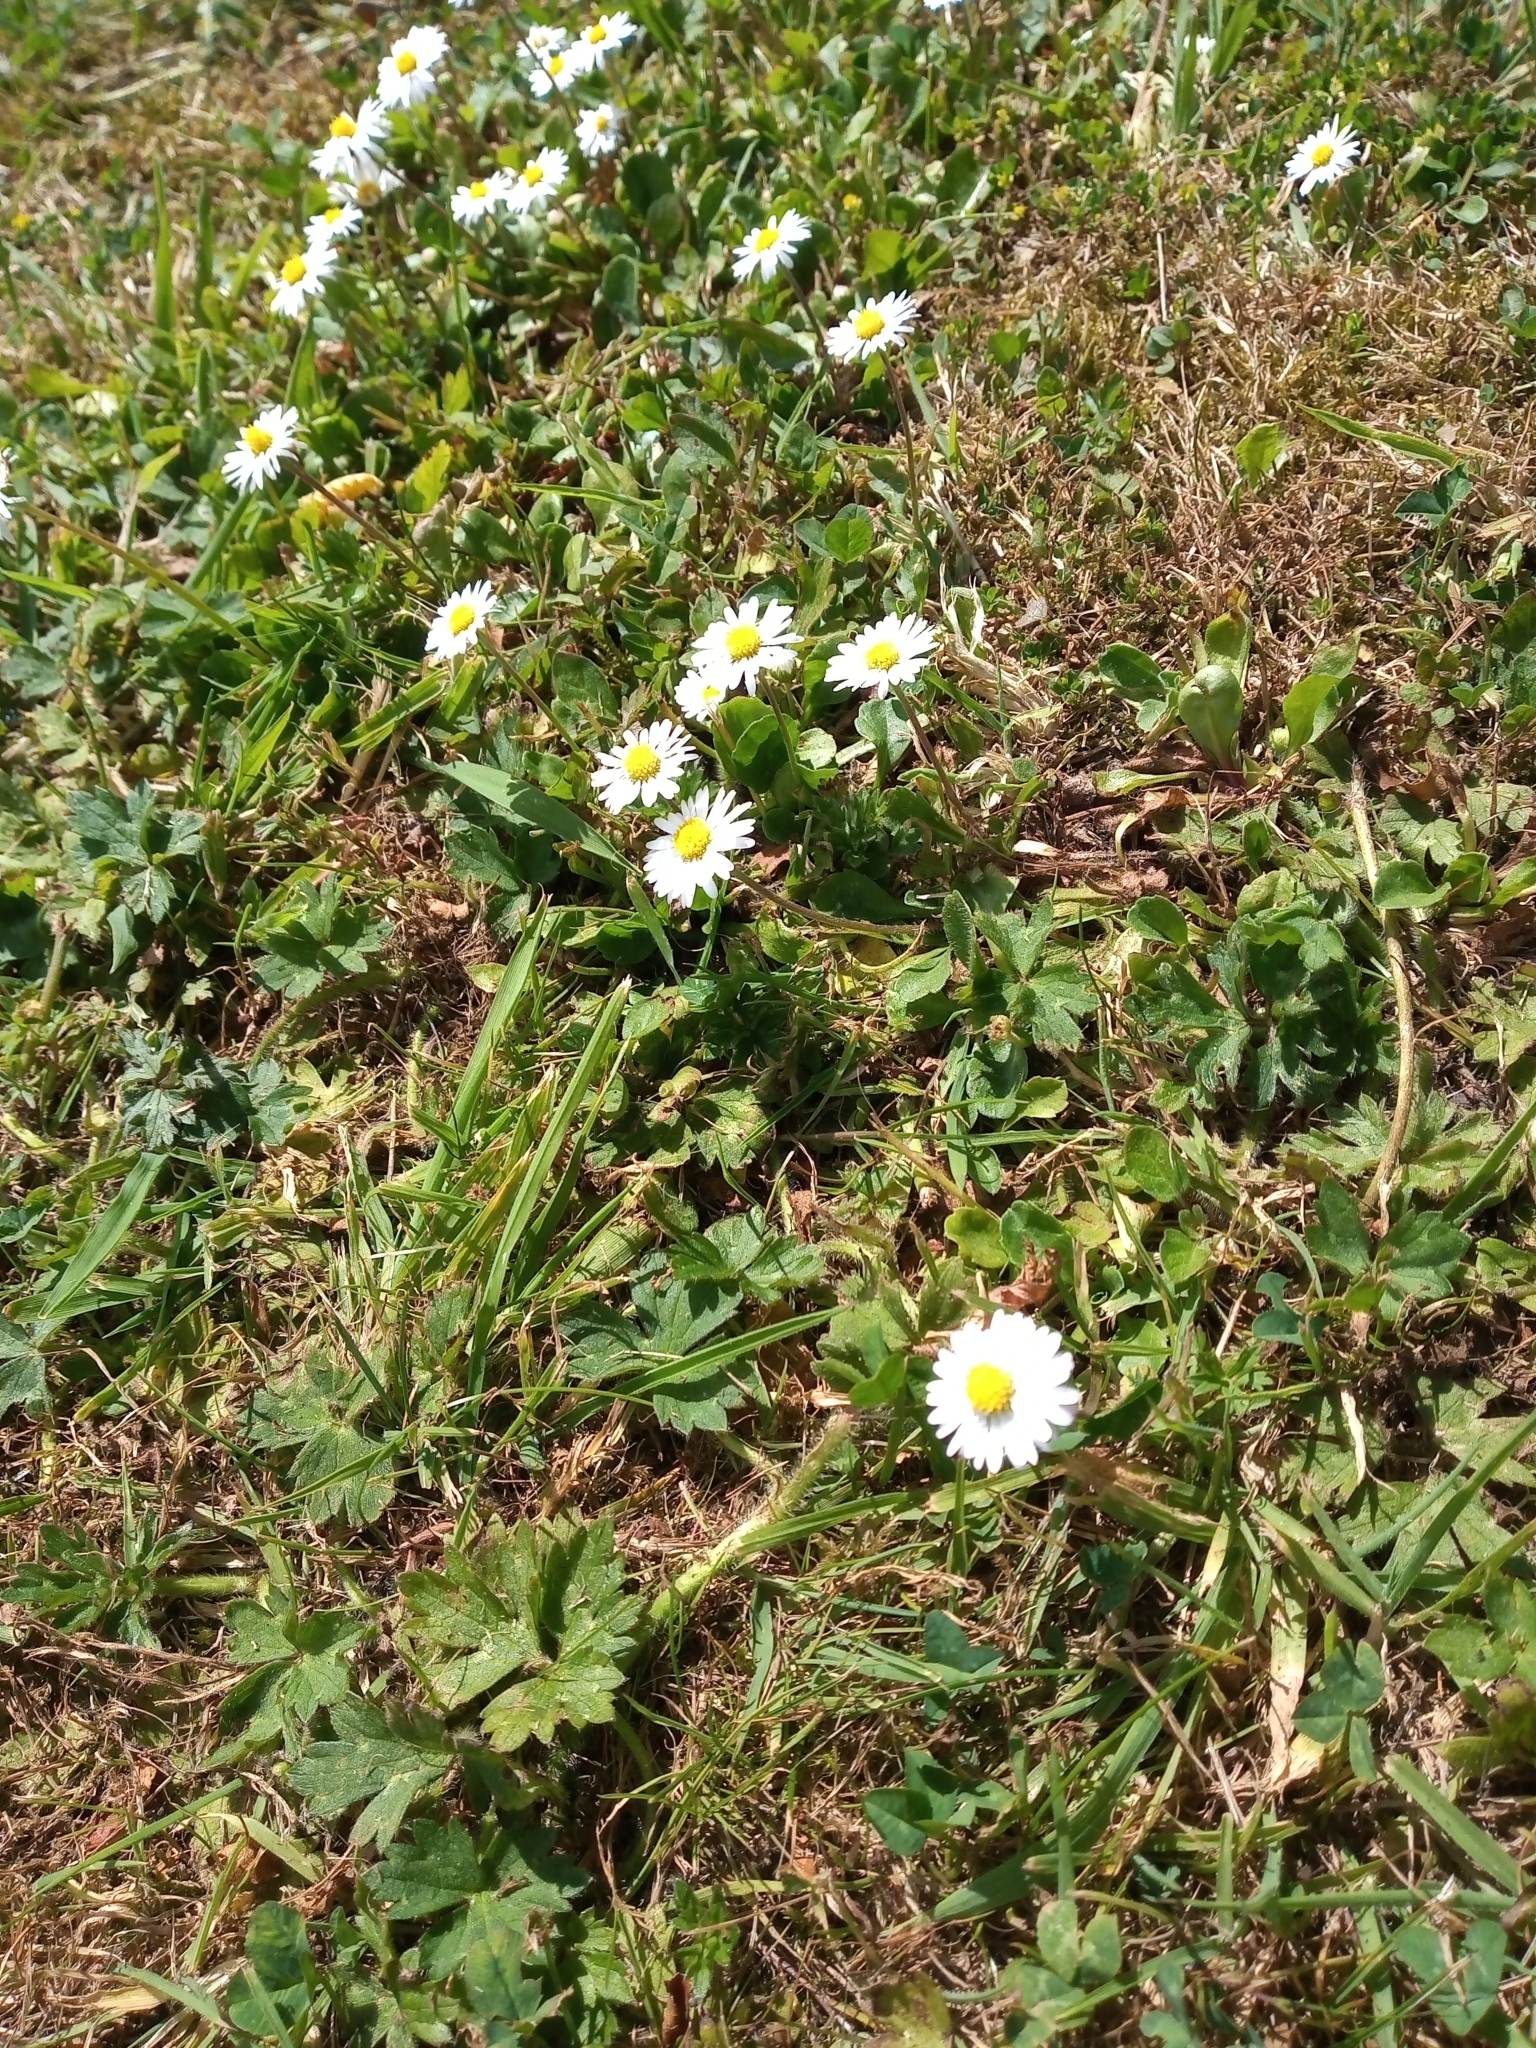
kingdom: Plantae
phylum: Tracheophyta
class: Magnoliopsida
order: Asterales
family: Asteraceae
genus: Bellis
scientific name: Bellis perennis
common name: Lawndaisy
